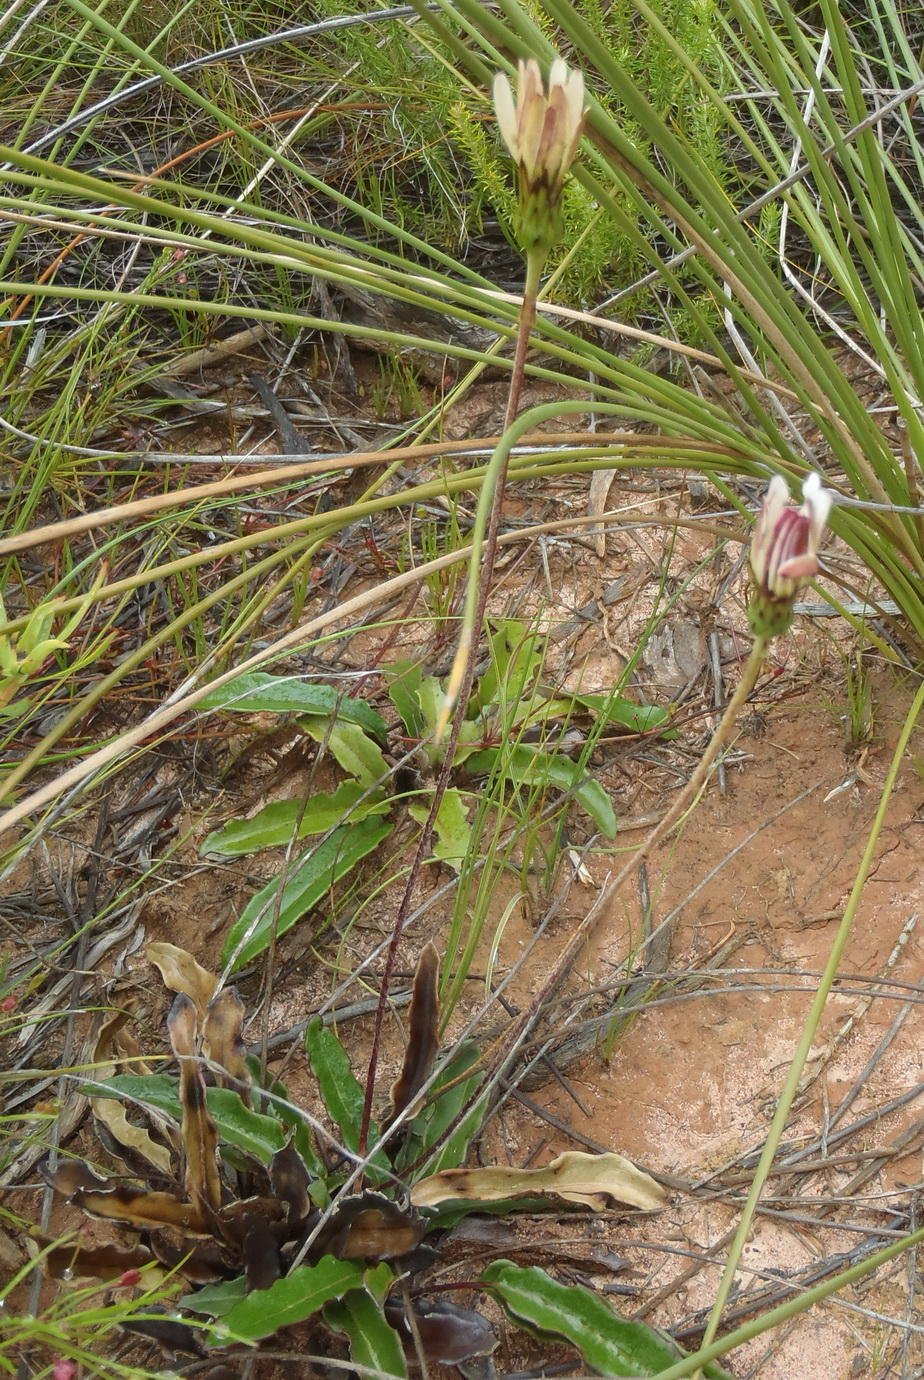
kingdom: Plantae
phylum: Tracheophyta
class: Magnoliopsida
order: Asterales
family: Asteraceae
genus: Gerbera
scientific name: Gerbera serrata
